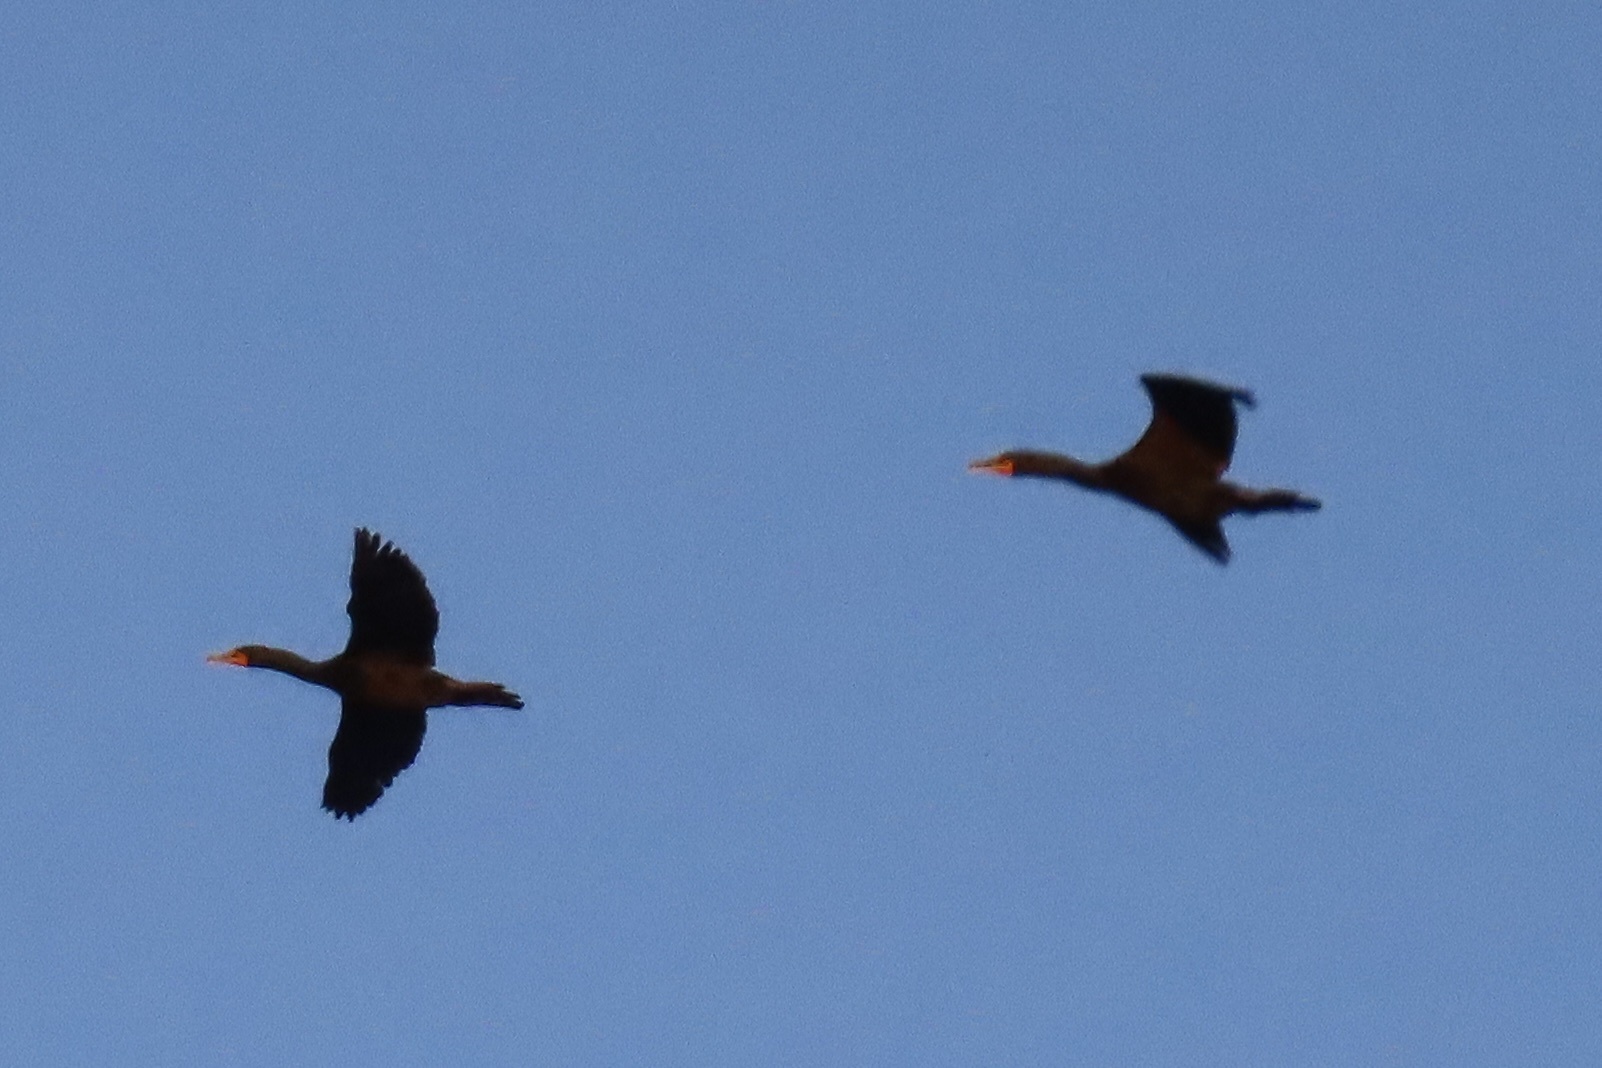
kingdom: Animalia
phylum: Chordata
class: Aves
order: Suliformes
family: Phalacrocoracidae
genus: Phalacrocorax
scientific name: Phalacrocorax auritus
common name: Double-crested cormorant
